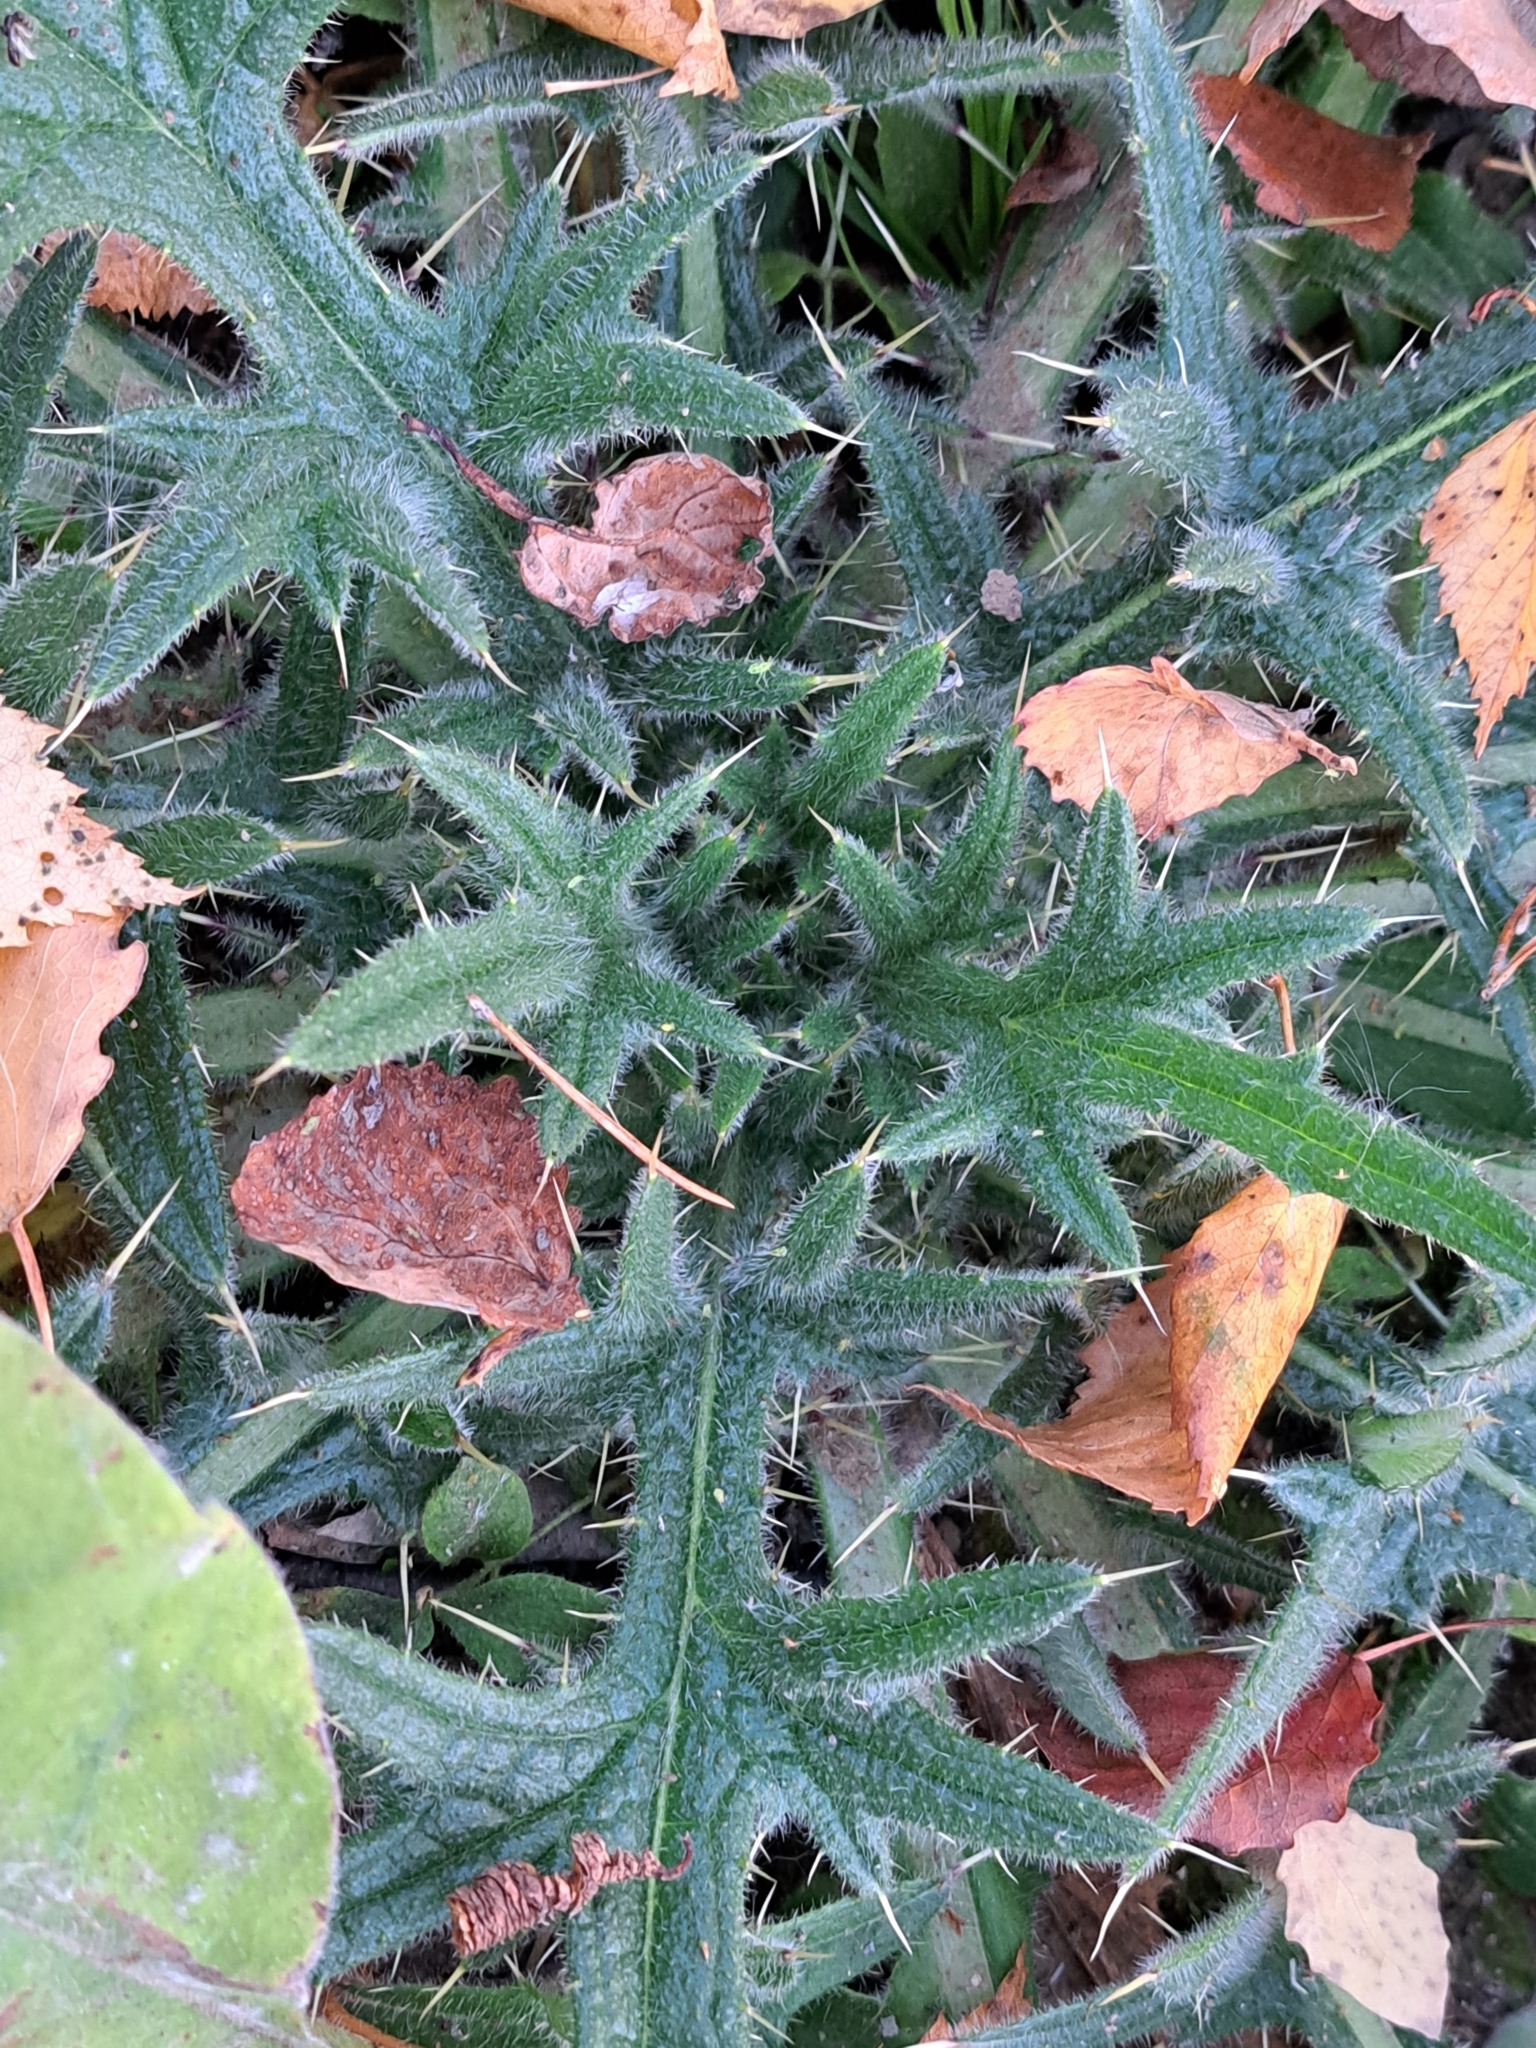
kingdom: Plantae
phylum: Tracheophyta
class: Magnoliopsida
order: Asterales
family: Asteraceae
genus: Cirsium
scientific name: Cirsium vulgare
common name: Bull thistle
